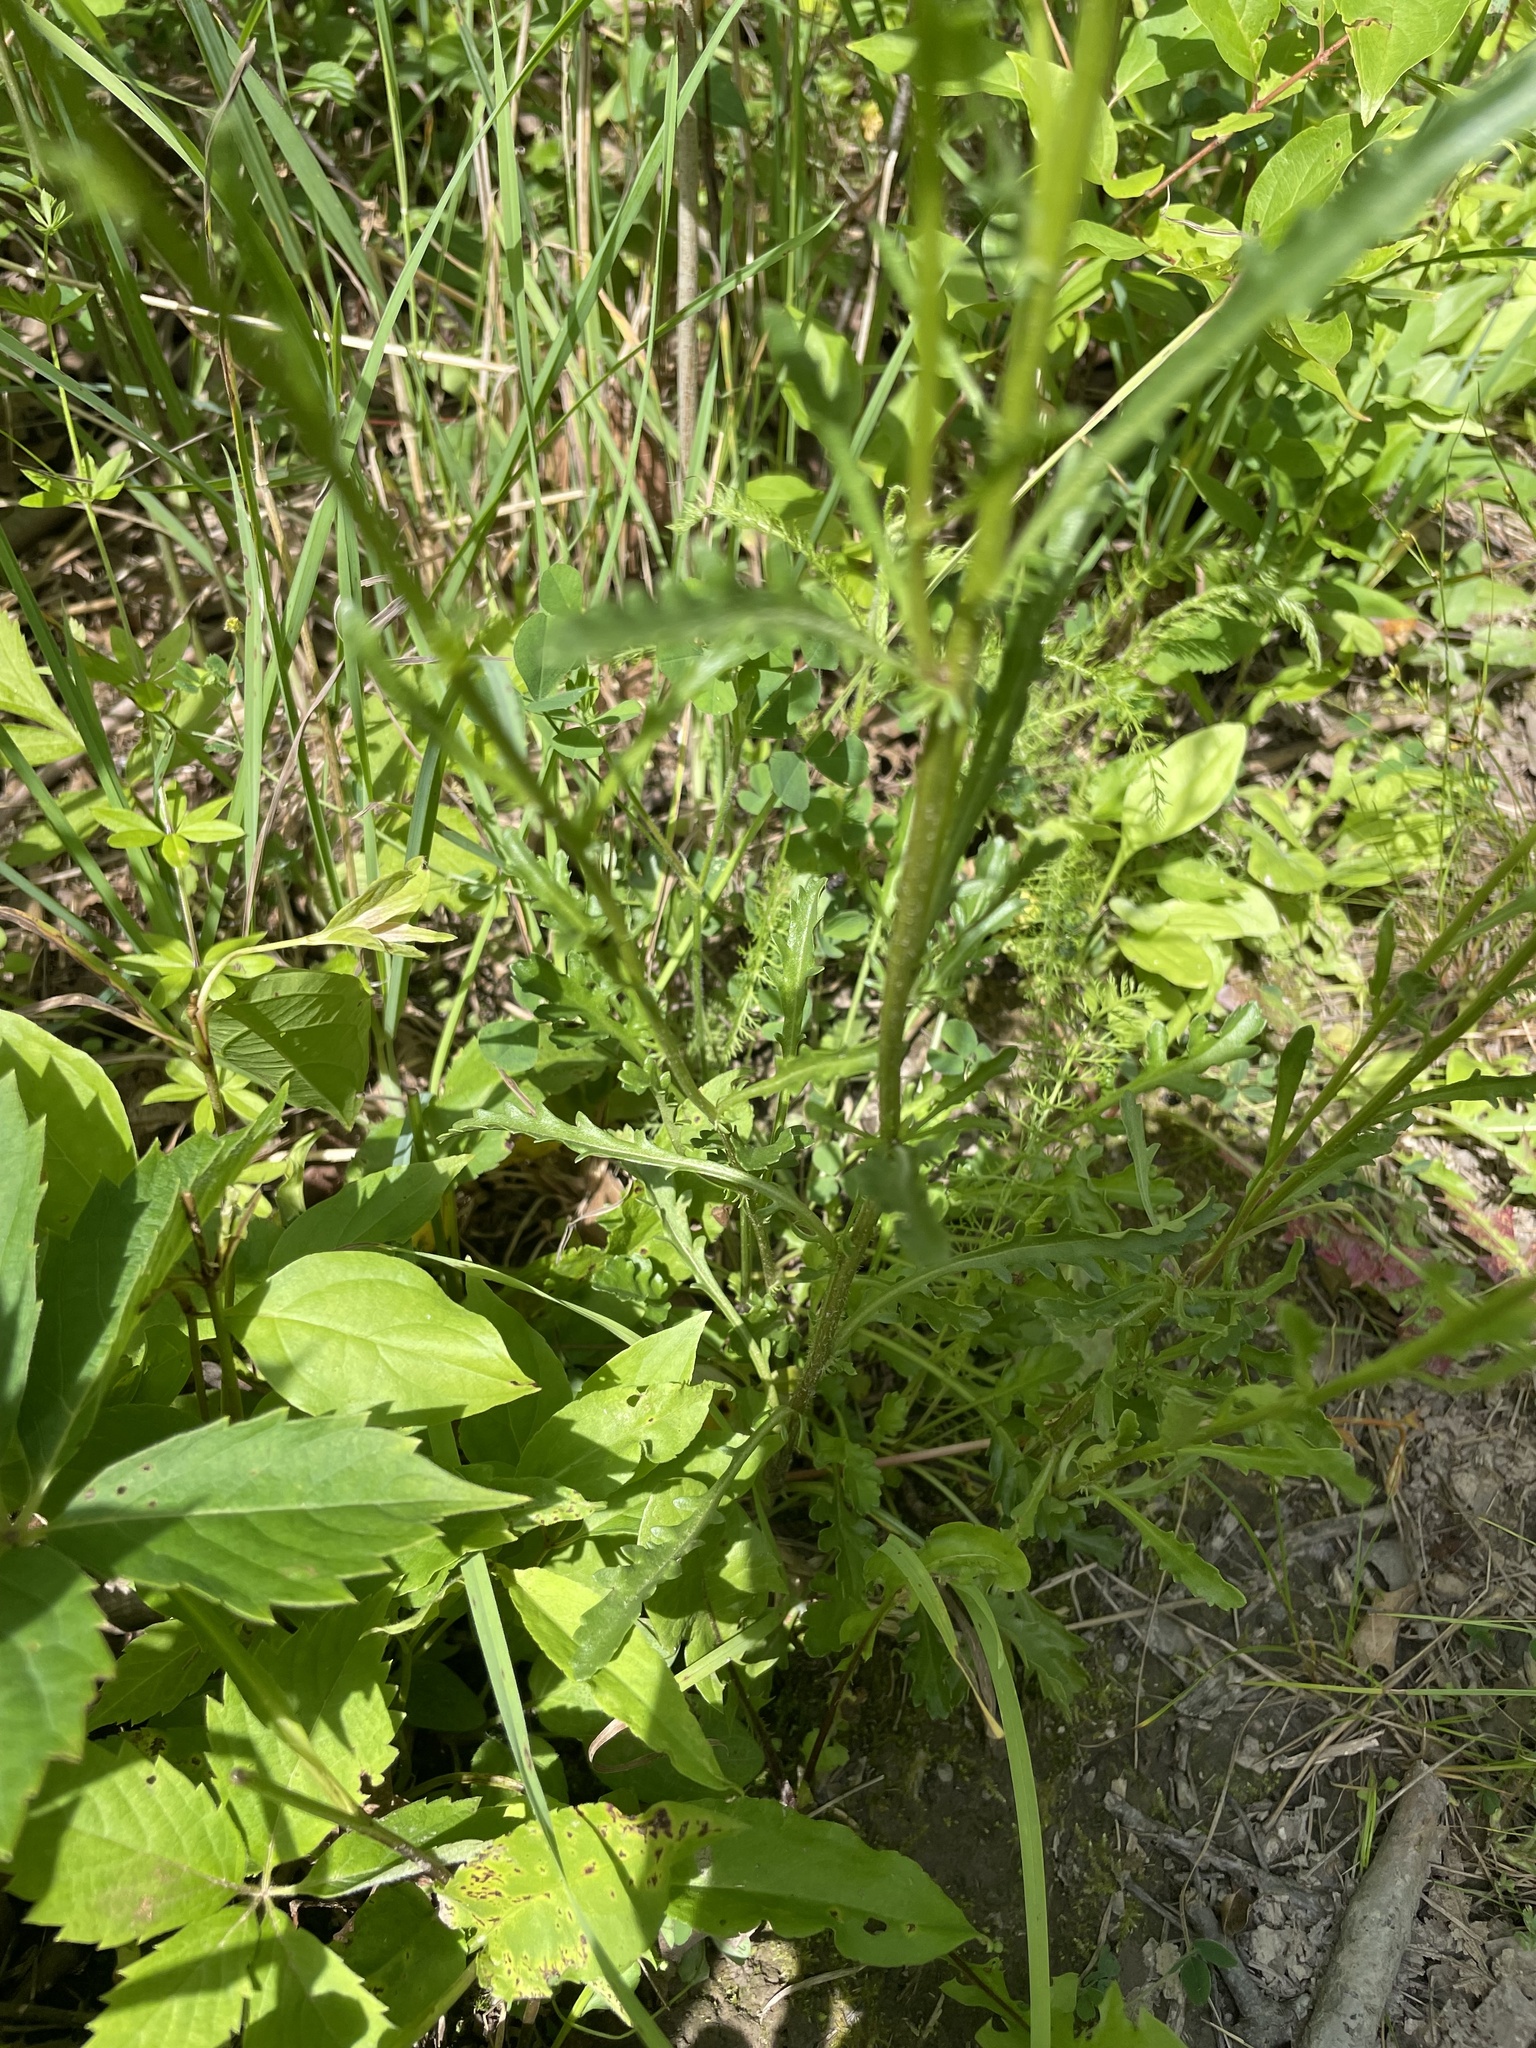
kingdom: Plantae
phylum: Tracheophyta
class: Magnoliopsida
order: Asterales
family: Asteraceae
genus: Leucanthemum
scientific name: Leucanthemum vulgare
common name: Oxeye daisy
